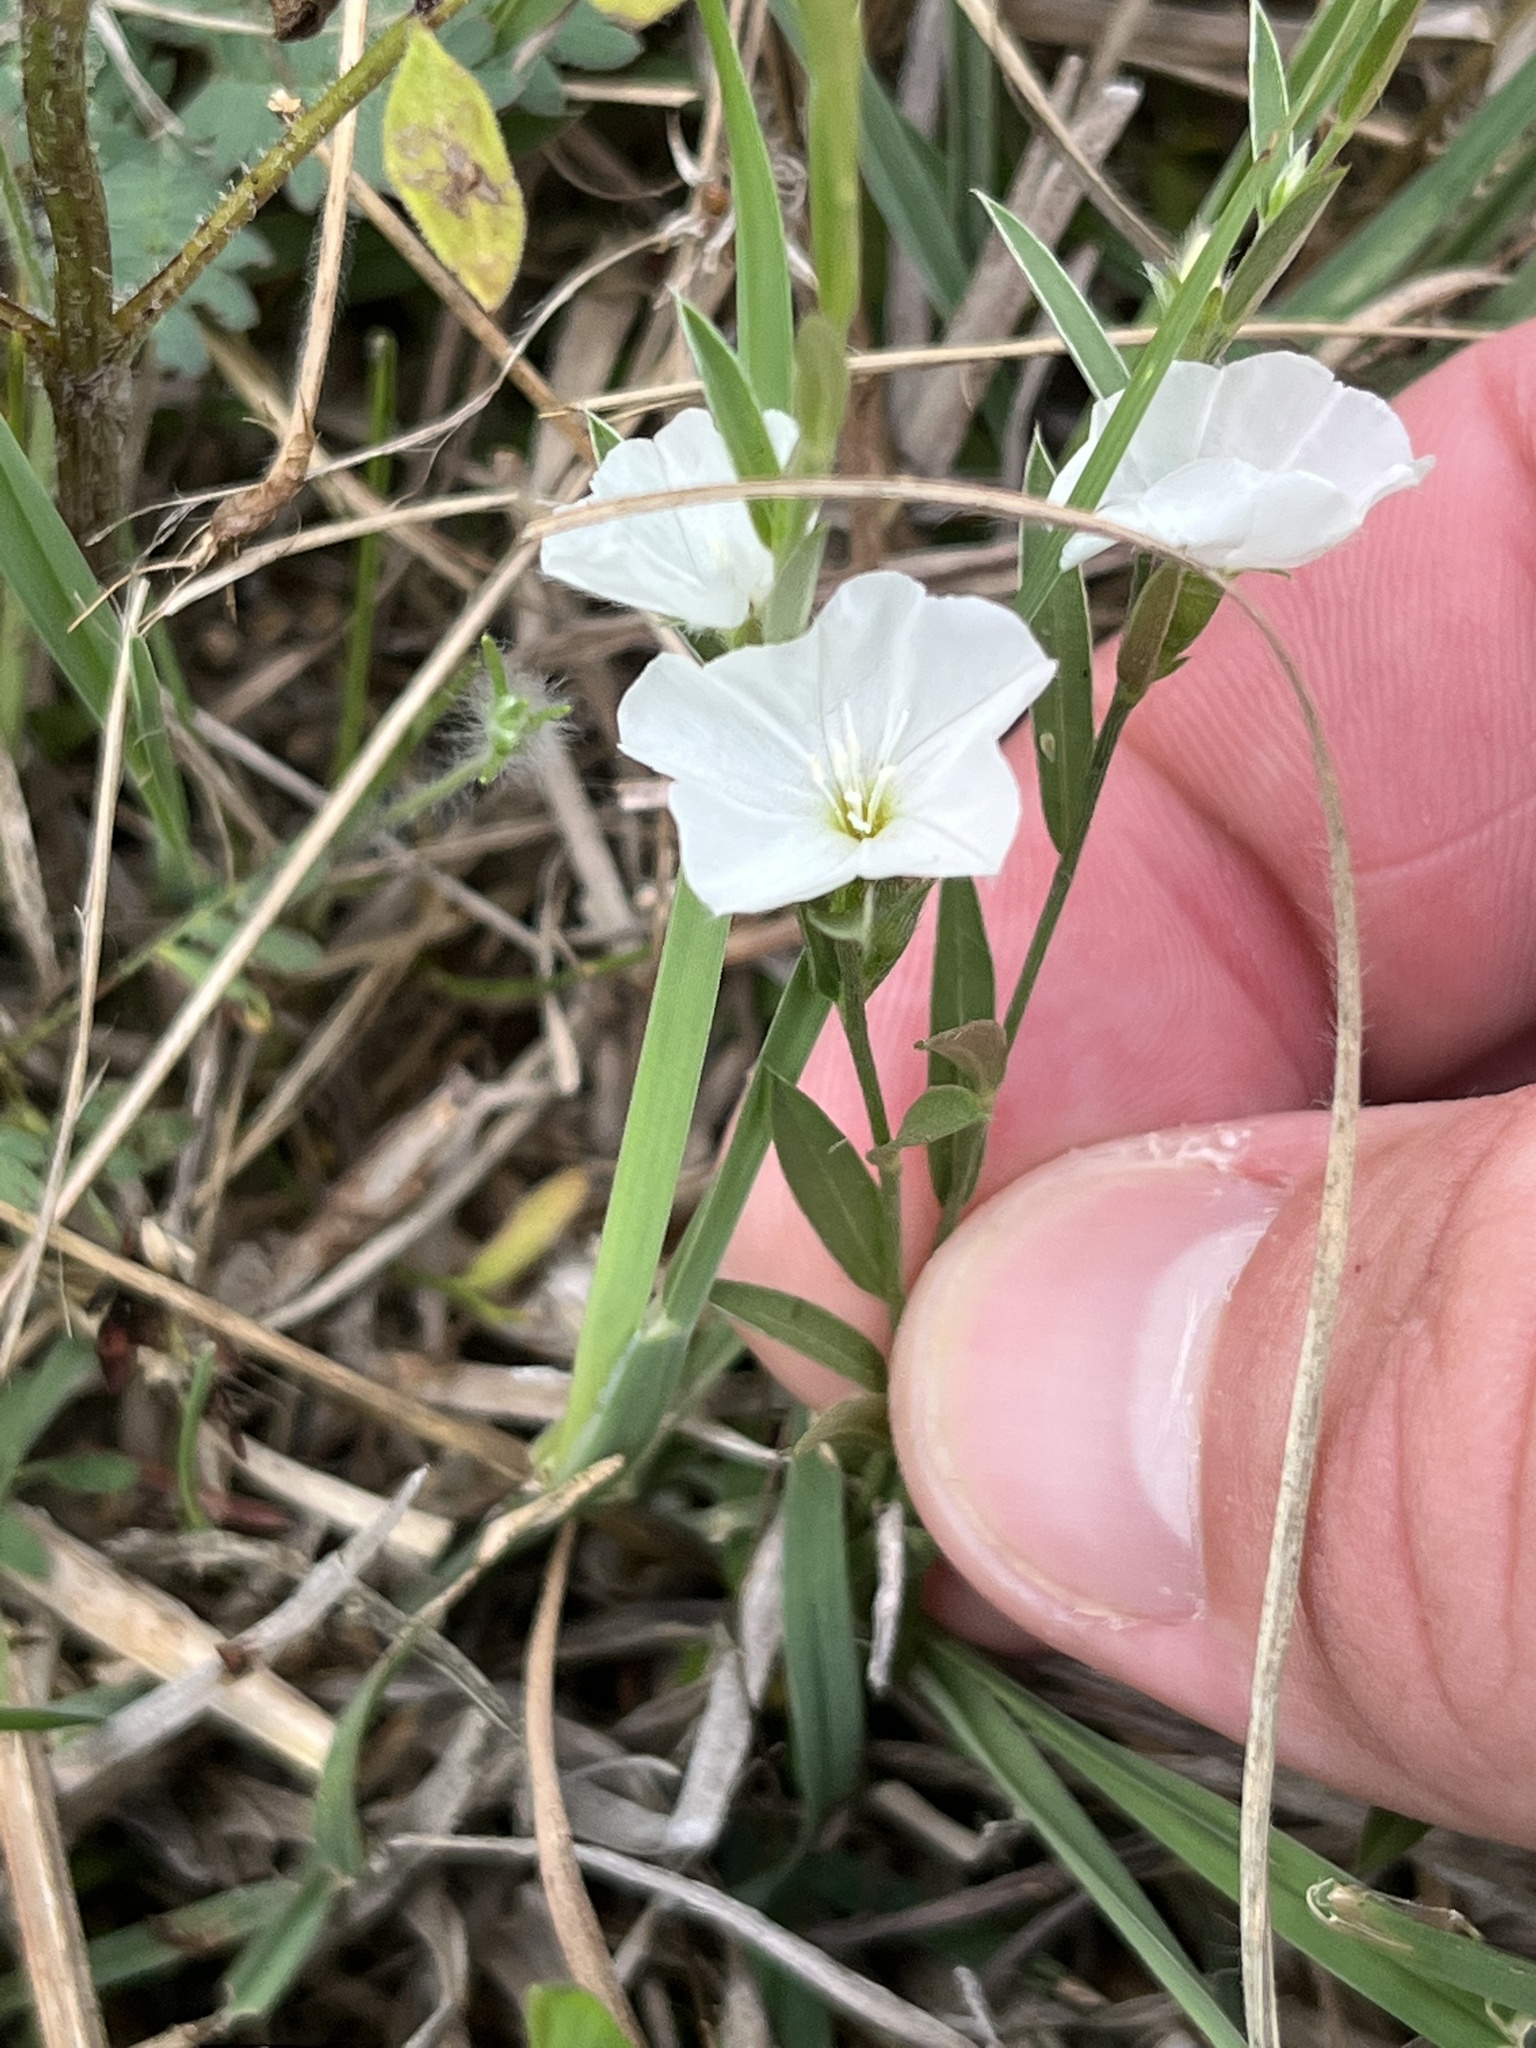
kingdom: Plantae
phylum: Tracheophyta
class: Magnoliopsida
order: Solanales
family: Convolvulaceae
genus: Evolvulus
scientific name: Evolvulus sericeus
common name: Blue dots
